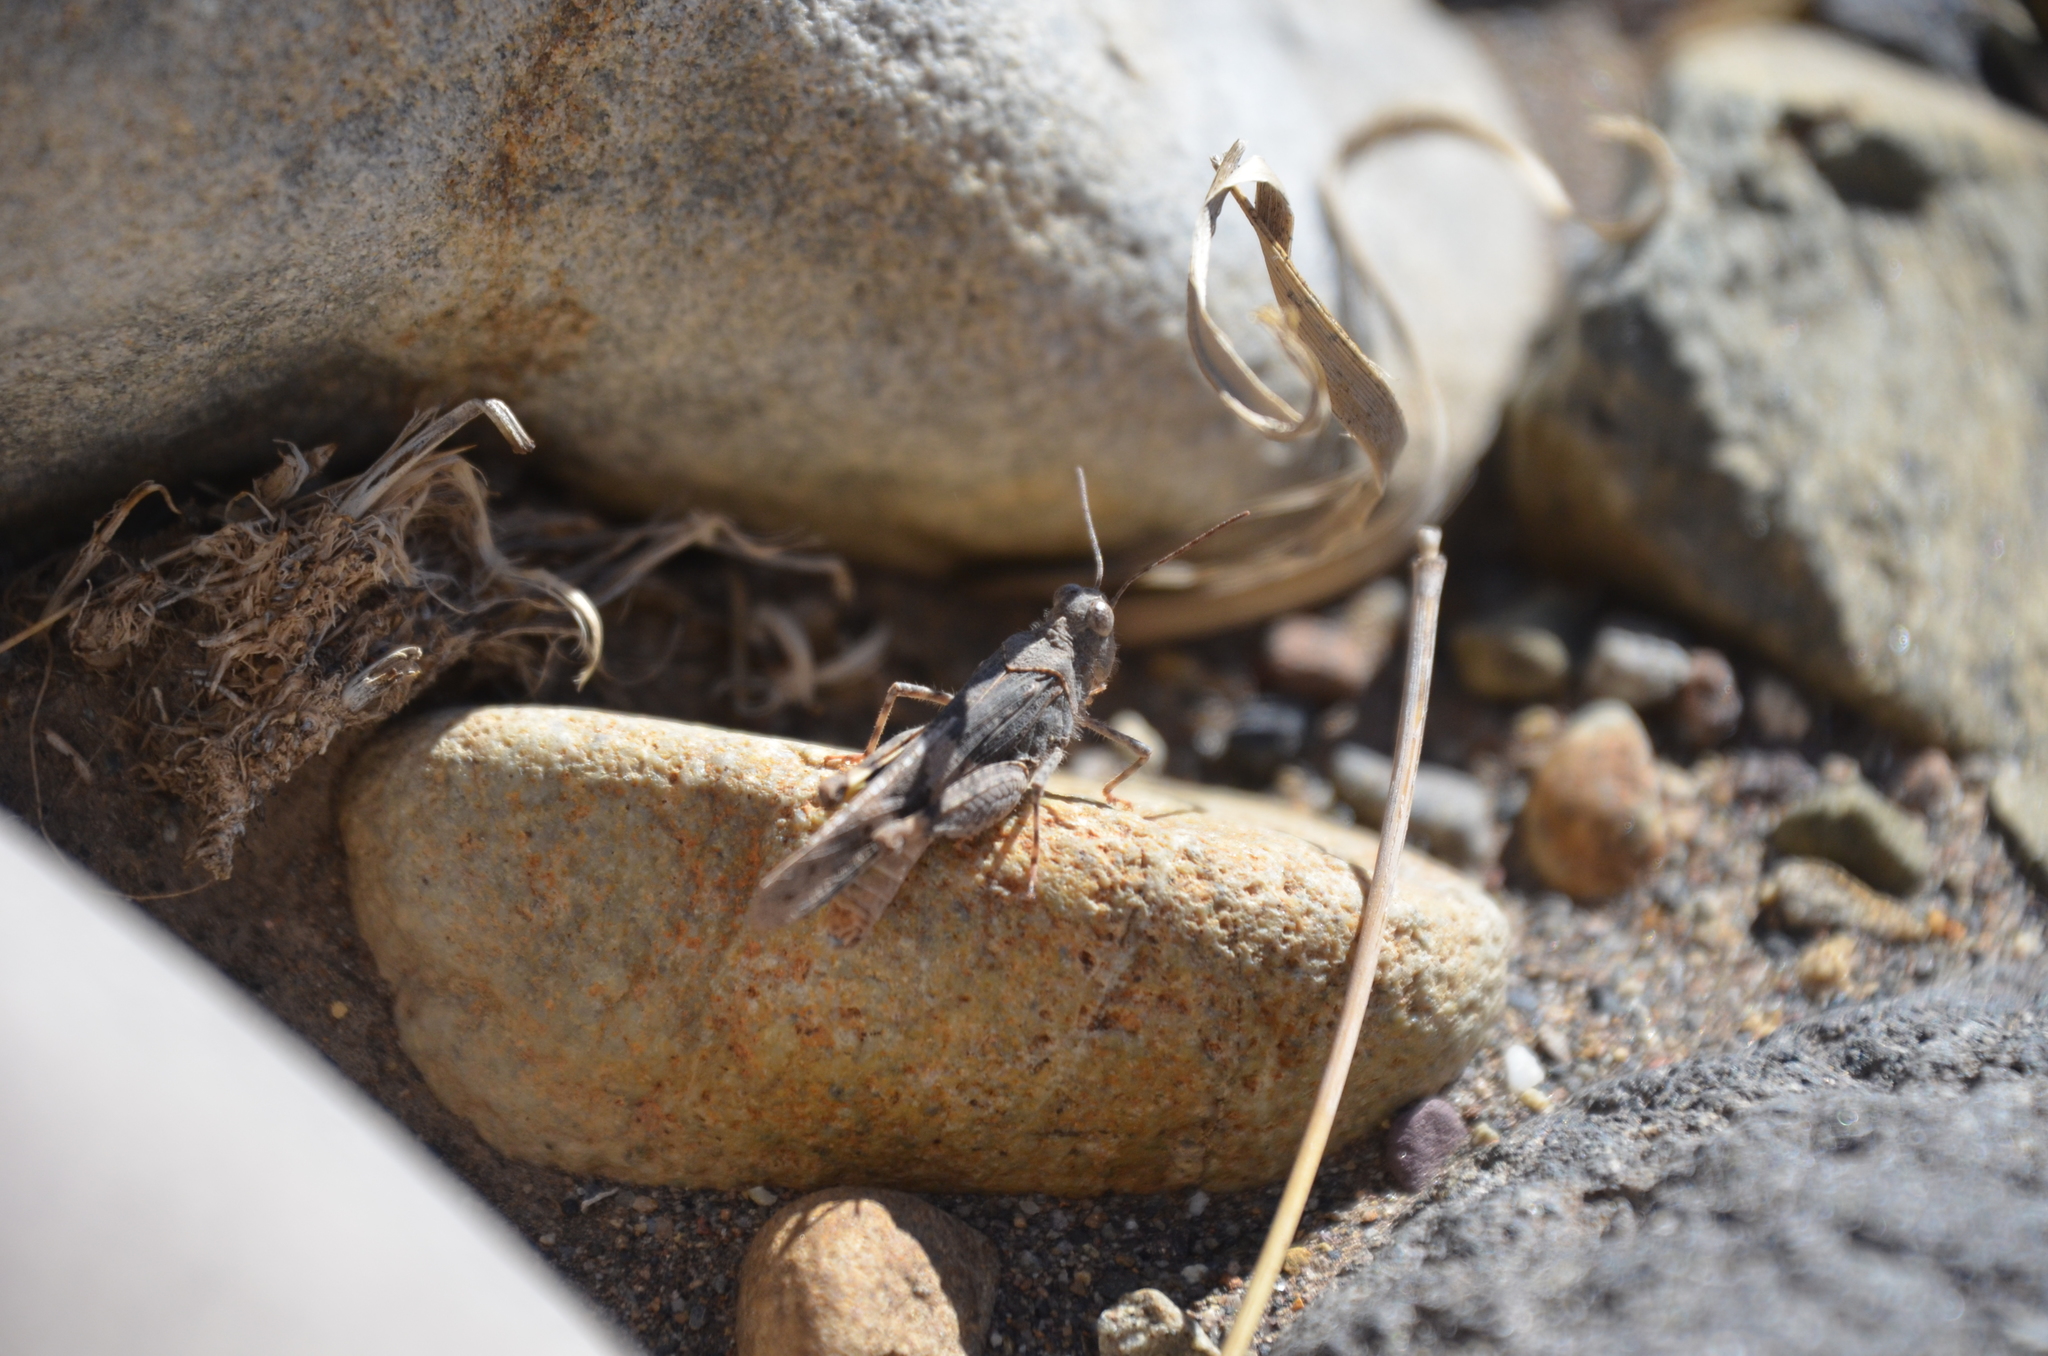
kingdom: Animalia
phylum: Arthropoda
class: Insecta
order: Orthoptera
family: Acrididae
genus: Trimerotropis
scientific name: Trimerotropis pallidipennis
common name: Pallid-winged grasshopper
